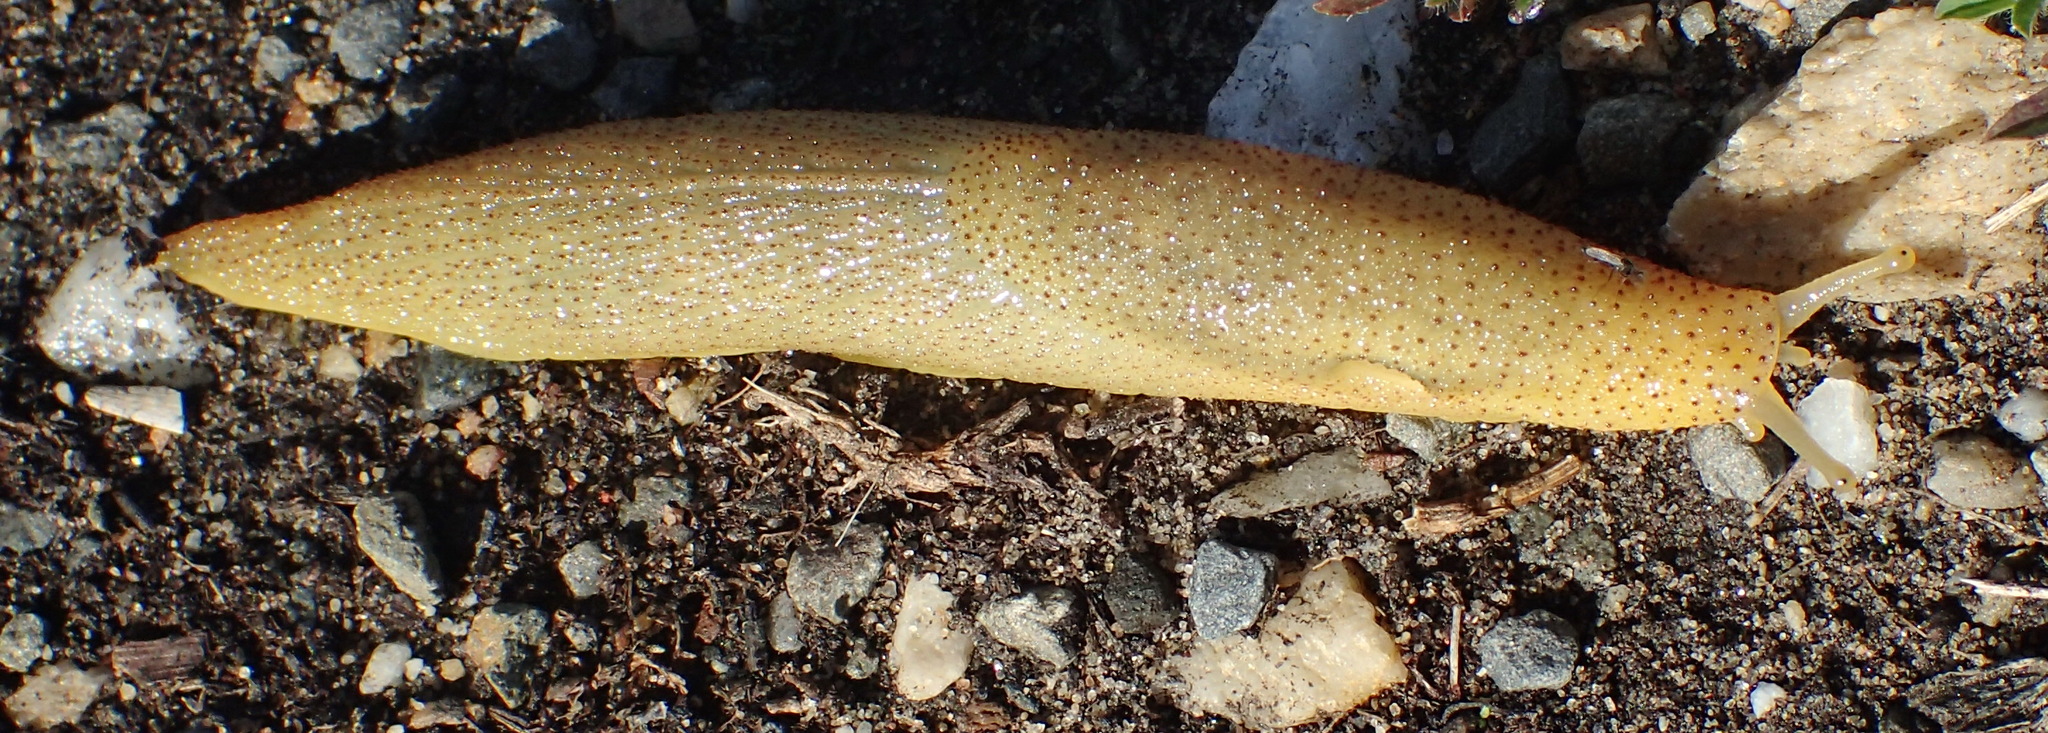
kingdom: Animalia
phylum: Mollusca
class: Gastropoda
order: Stylommatophora
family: Oopeltidae
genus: Oopelta
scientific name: Oopelta capensis
